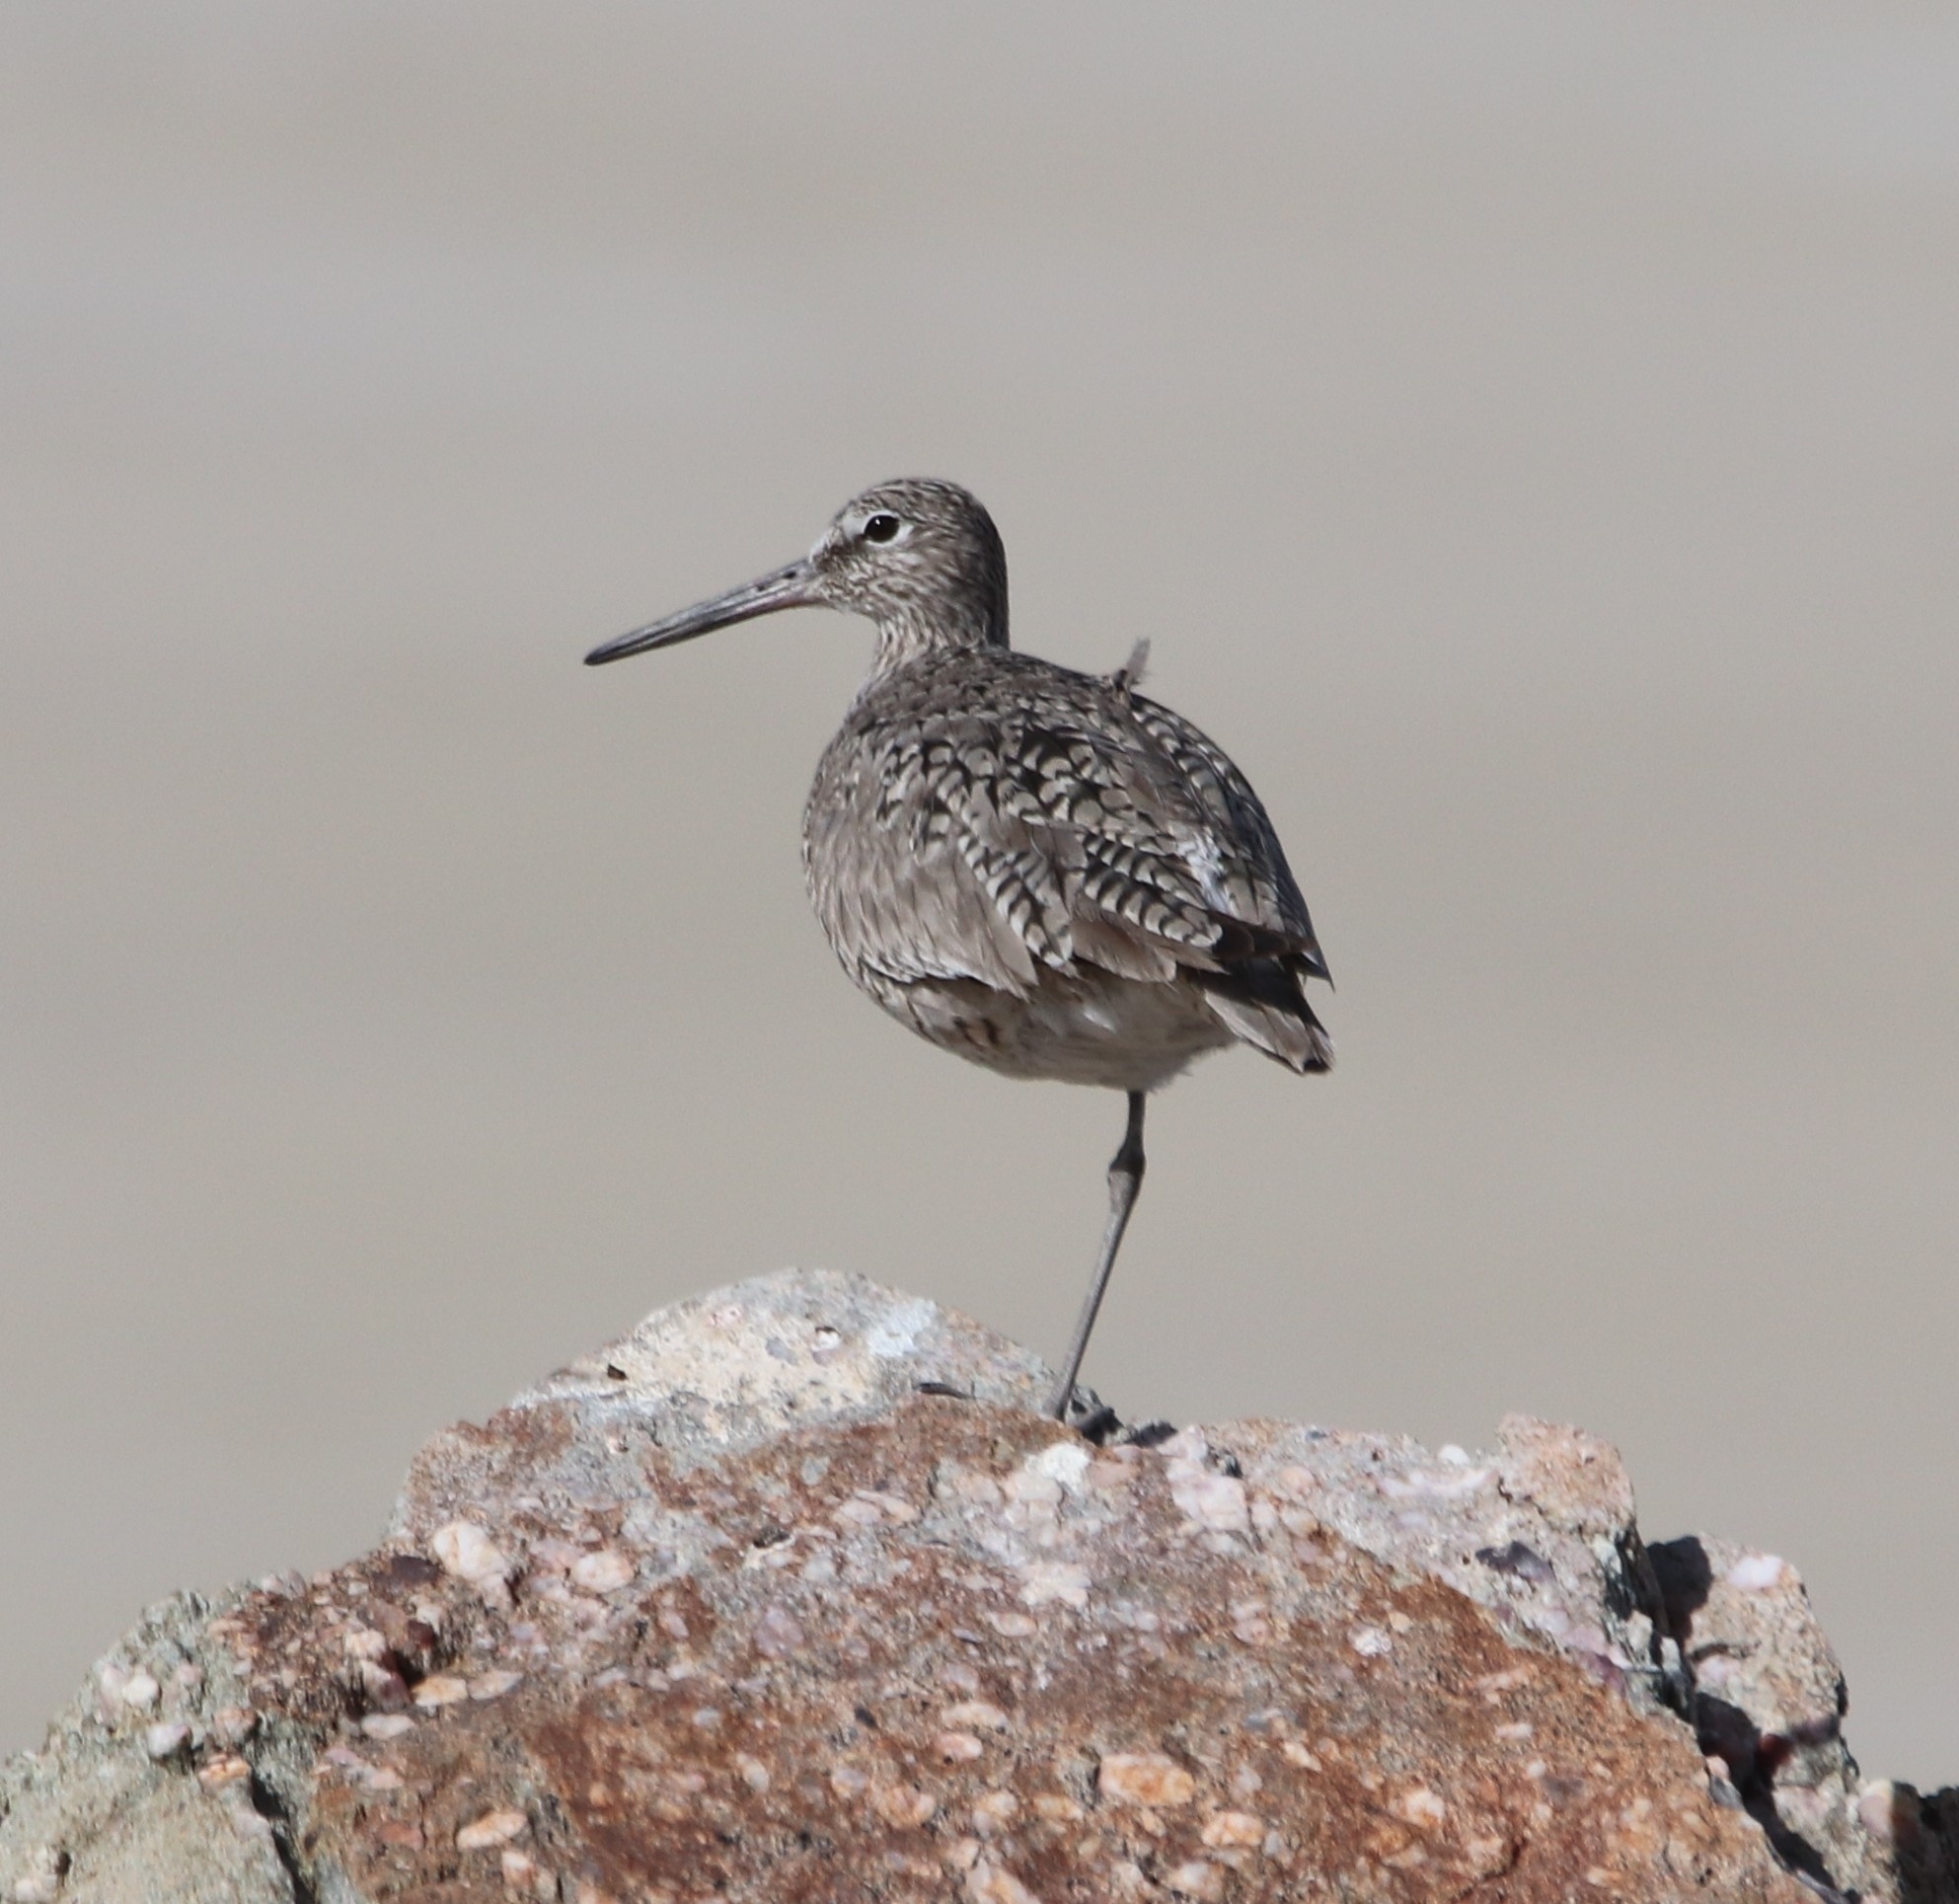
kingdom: Animalia
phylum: Chordata
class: Aves
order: Charadriiformes
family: Scolopacidae
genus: Tringa
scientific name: Tringa semipalmata
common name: Willet
